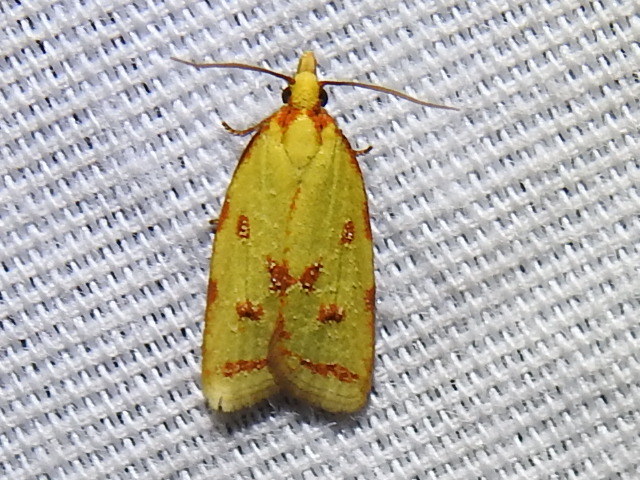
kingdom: Animalia
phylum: Arthropoda
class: Insecta
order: Lepidoptera
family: Tortricidae
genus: Sparganothis
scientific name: Sparganothis sulfureana
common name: Sparganothis fruitworm moth
